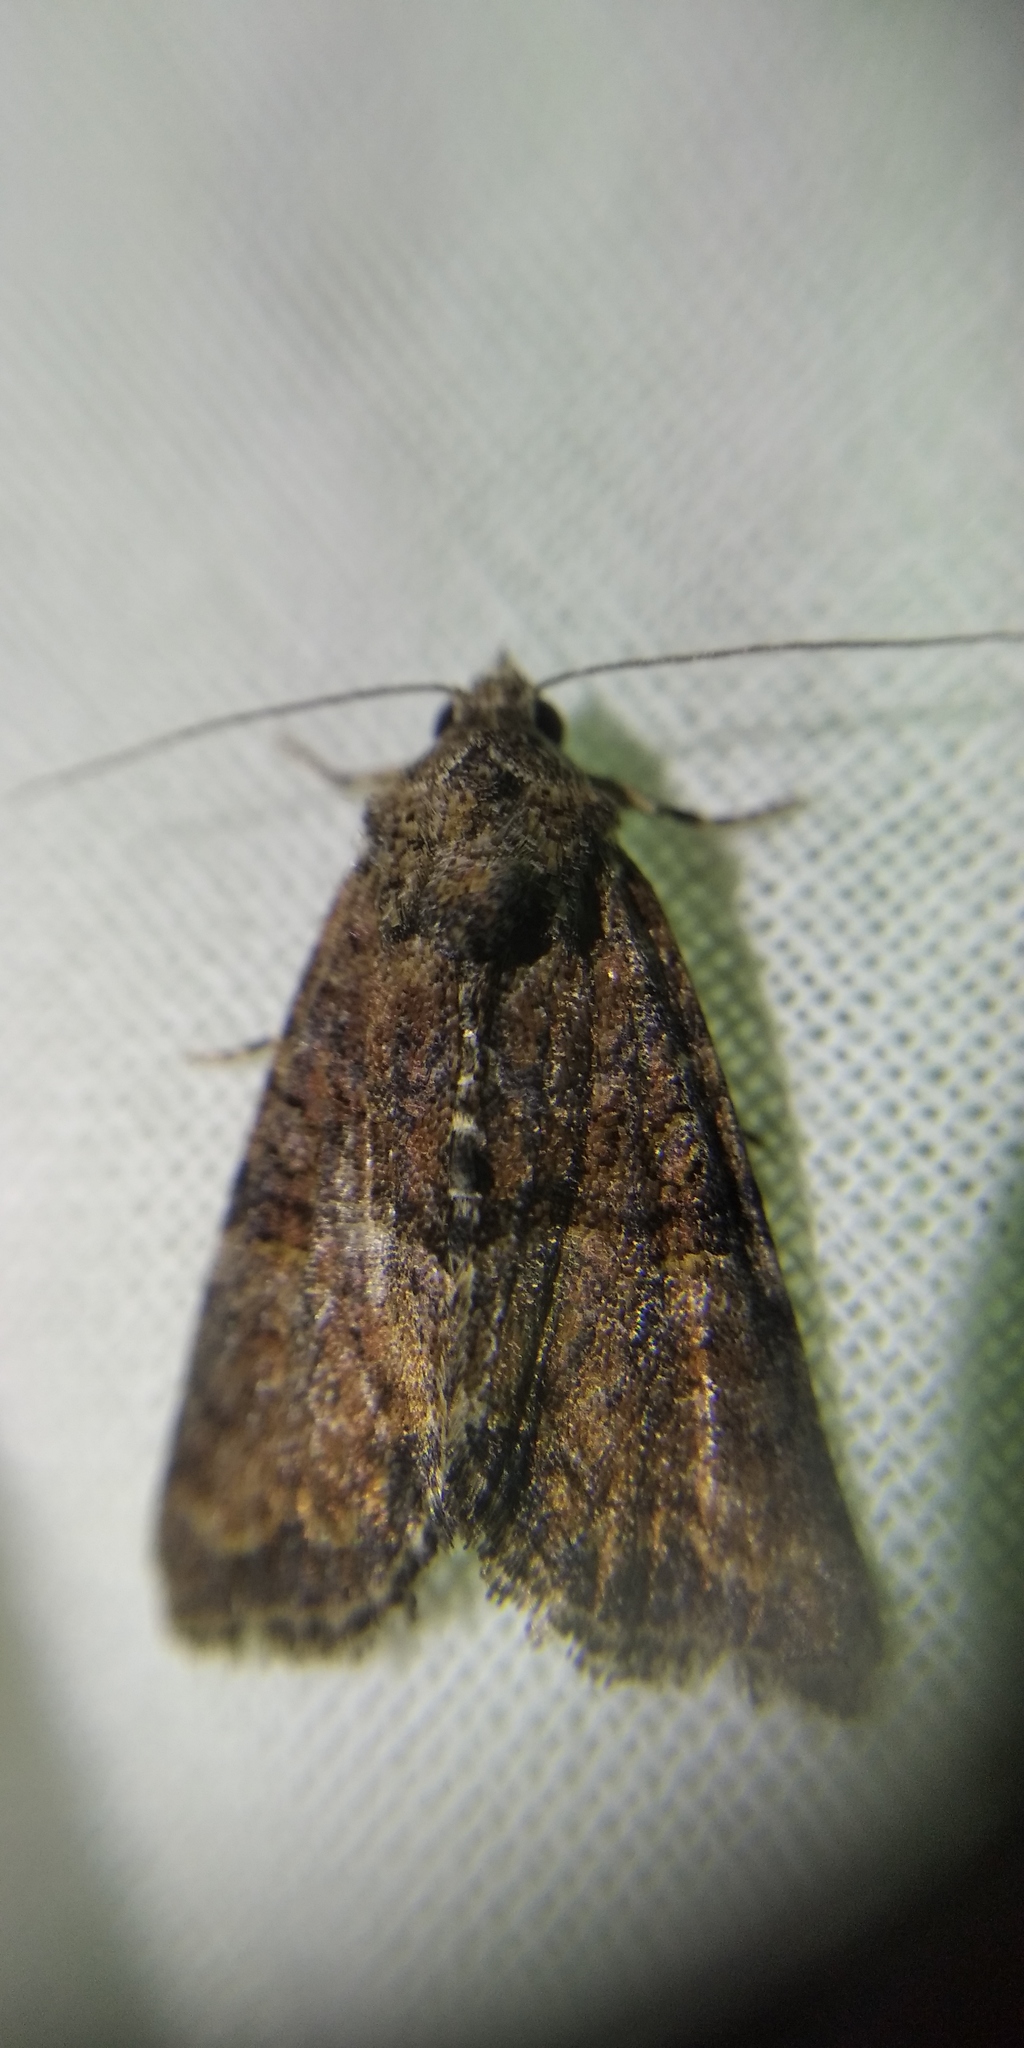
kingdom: Animalia
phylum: Arthropoda
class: Insecta
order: Lepidoptera
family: Noctuidae
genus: Mesoligia
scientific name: Mesoligia furuncula
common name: Cloaked minor
